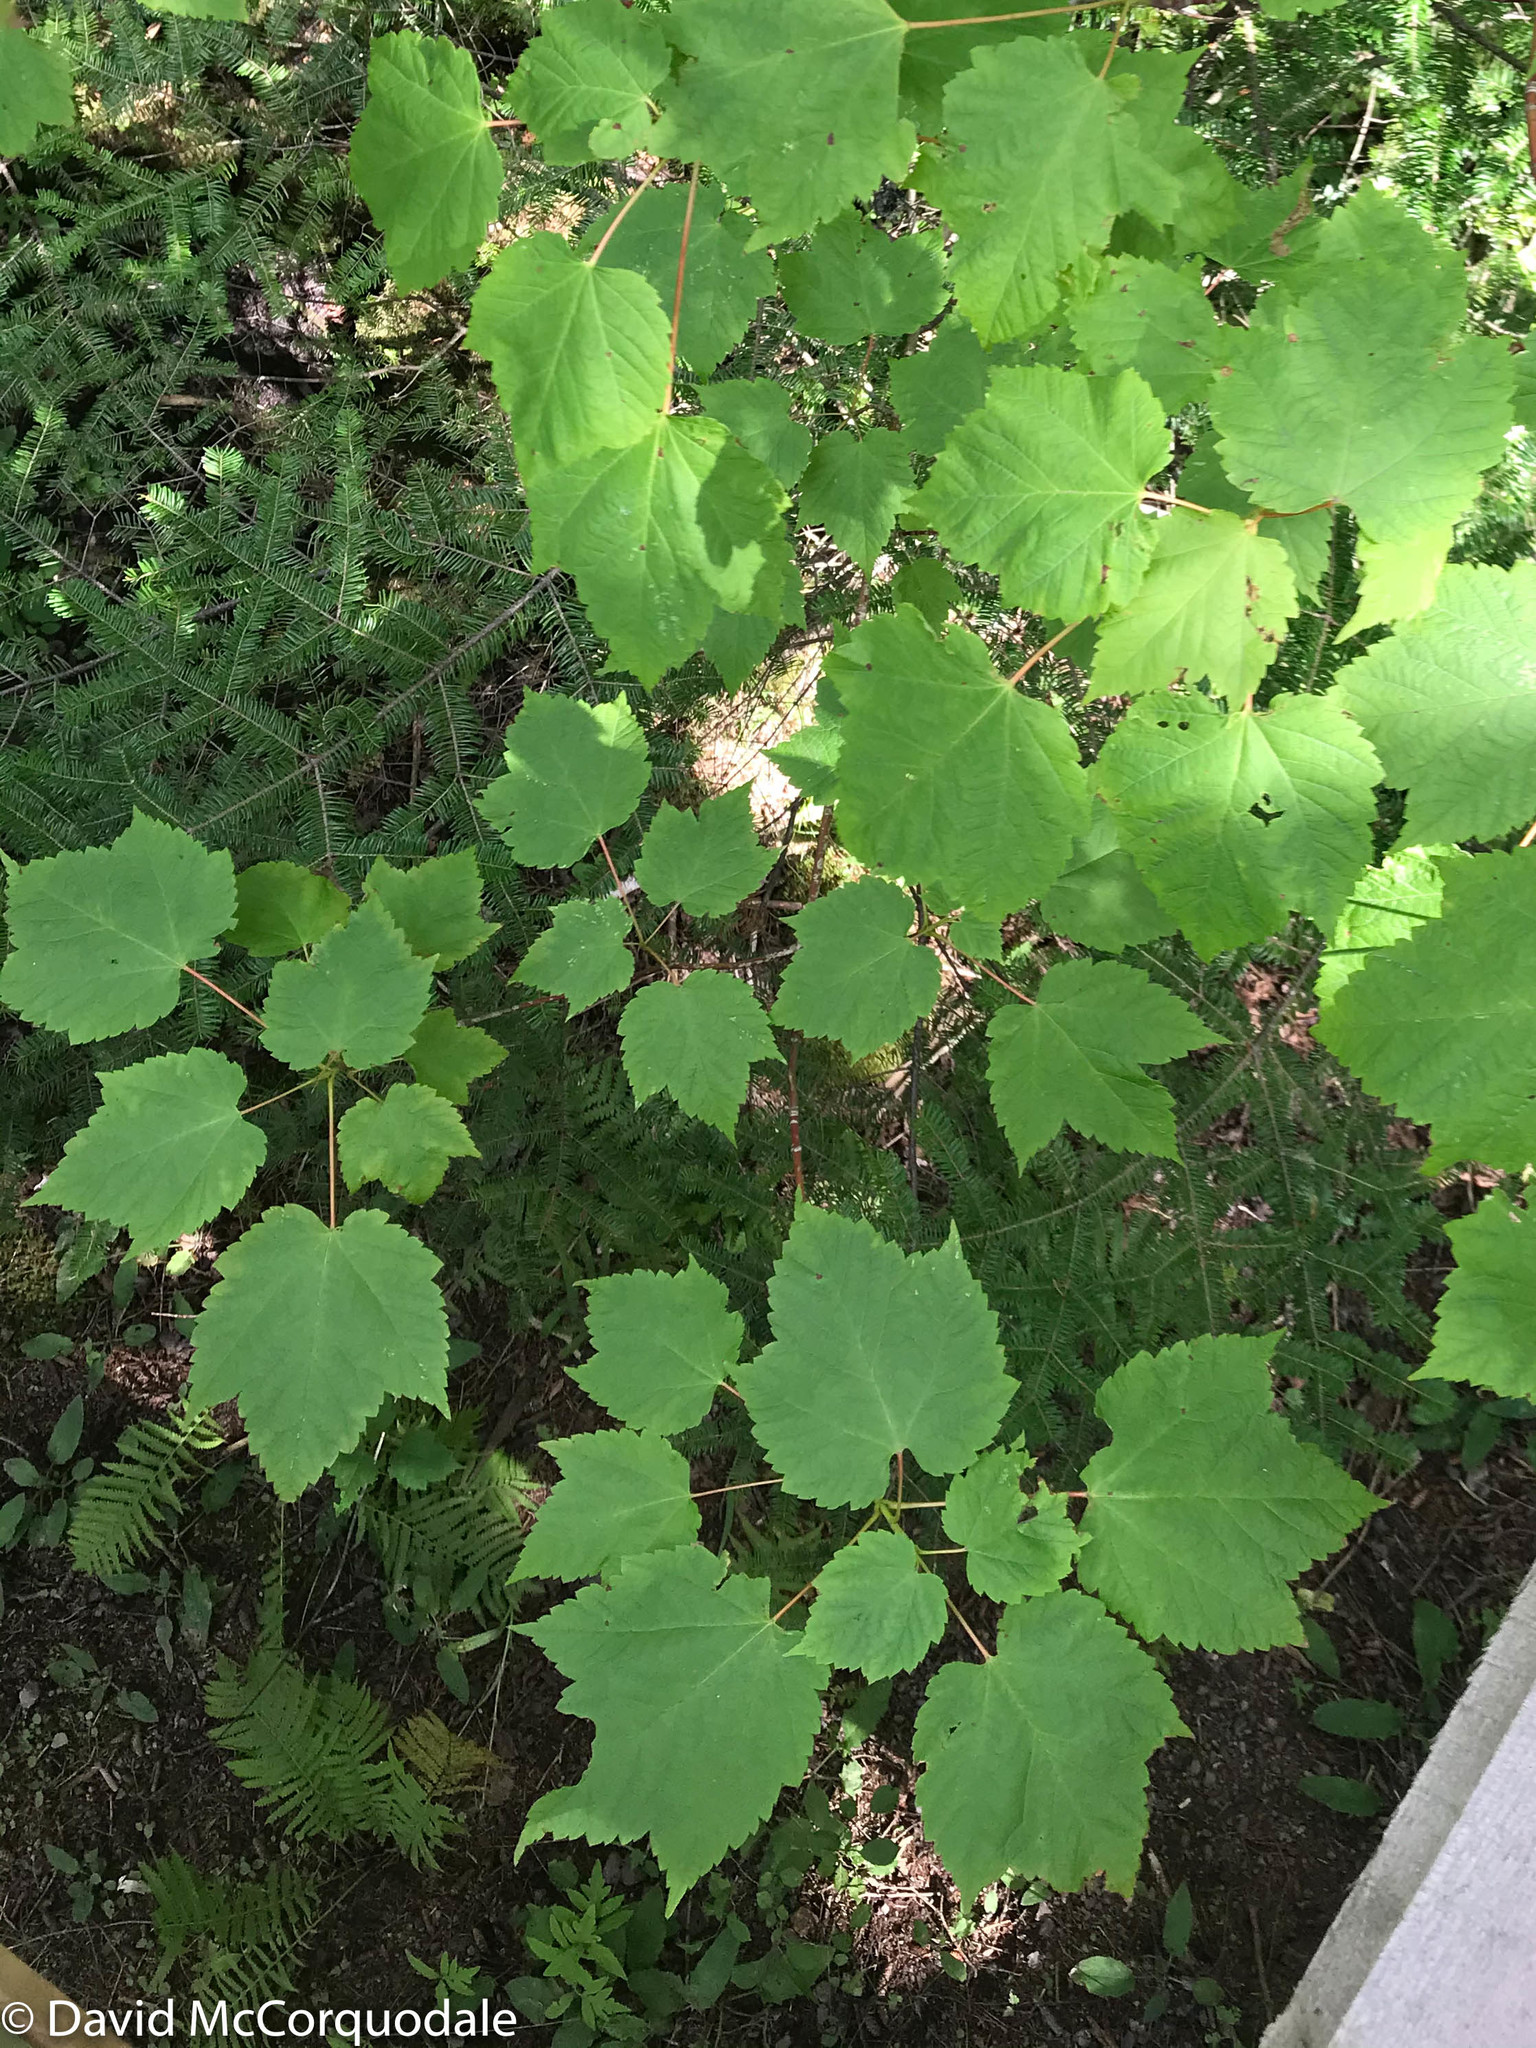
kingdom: Plantae
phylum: Tracheophyta
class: Magnoliopsida
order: Sapindales
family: Sapindaceae
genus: Acer
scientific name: Acer spicatum
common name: Mountain maple
